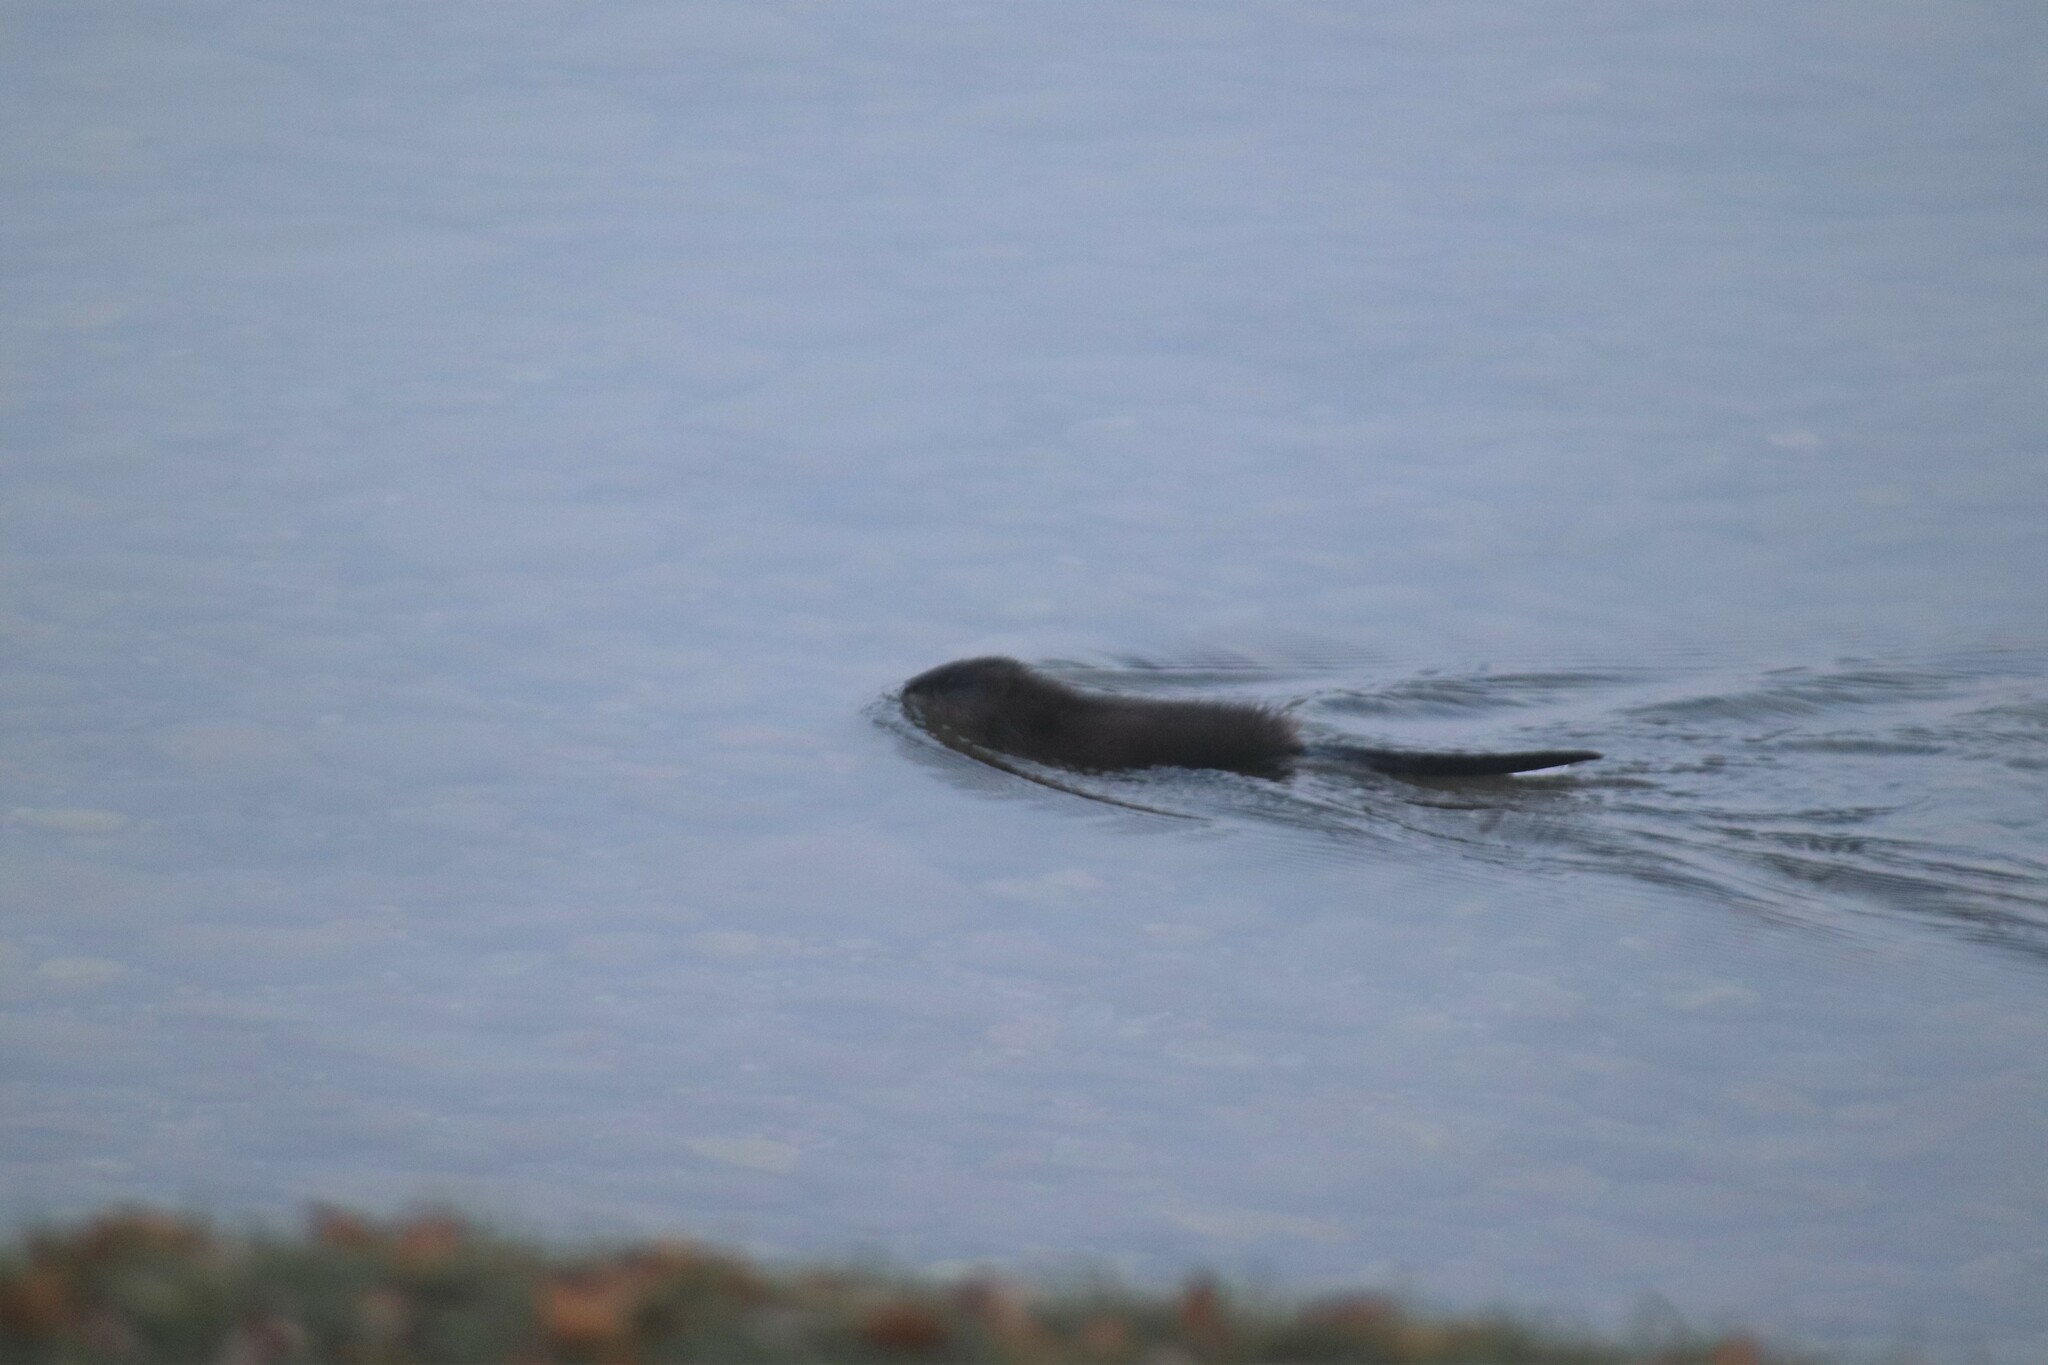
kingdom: Animalia
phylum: Chordata
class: Mammalia
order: Rodentia
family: Cricetidae
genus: Ondatra
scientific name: Ondatra zibethicus
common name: Muskrat
